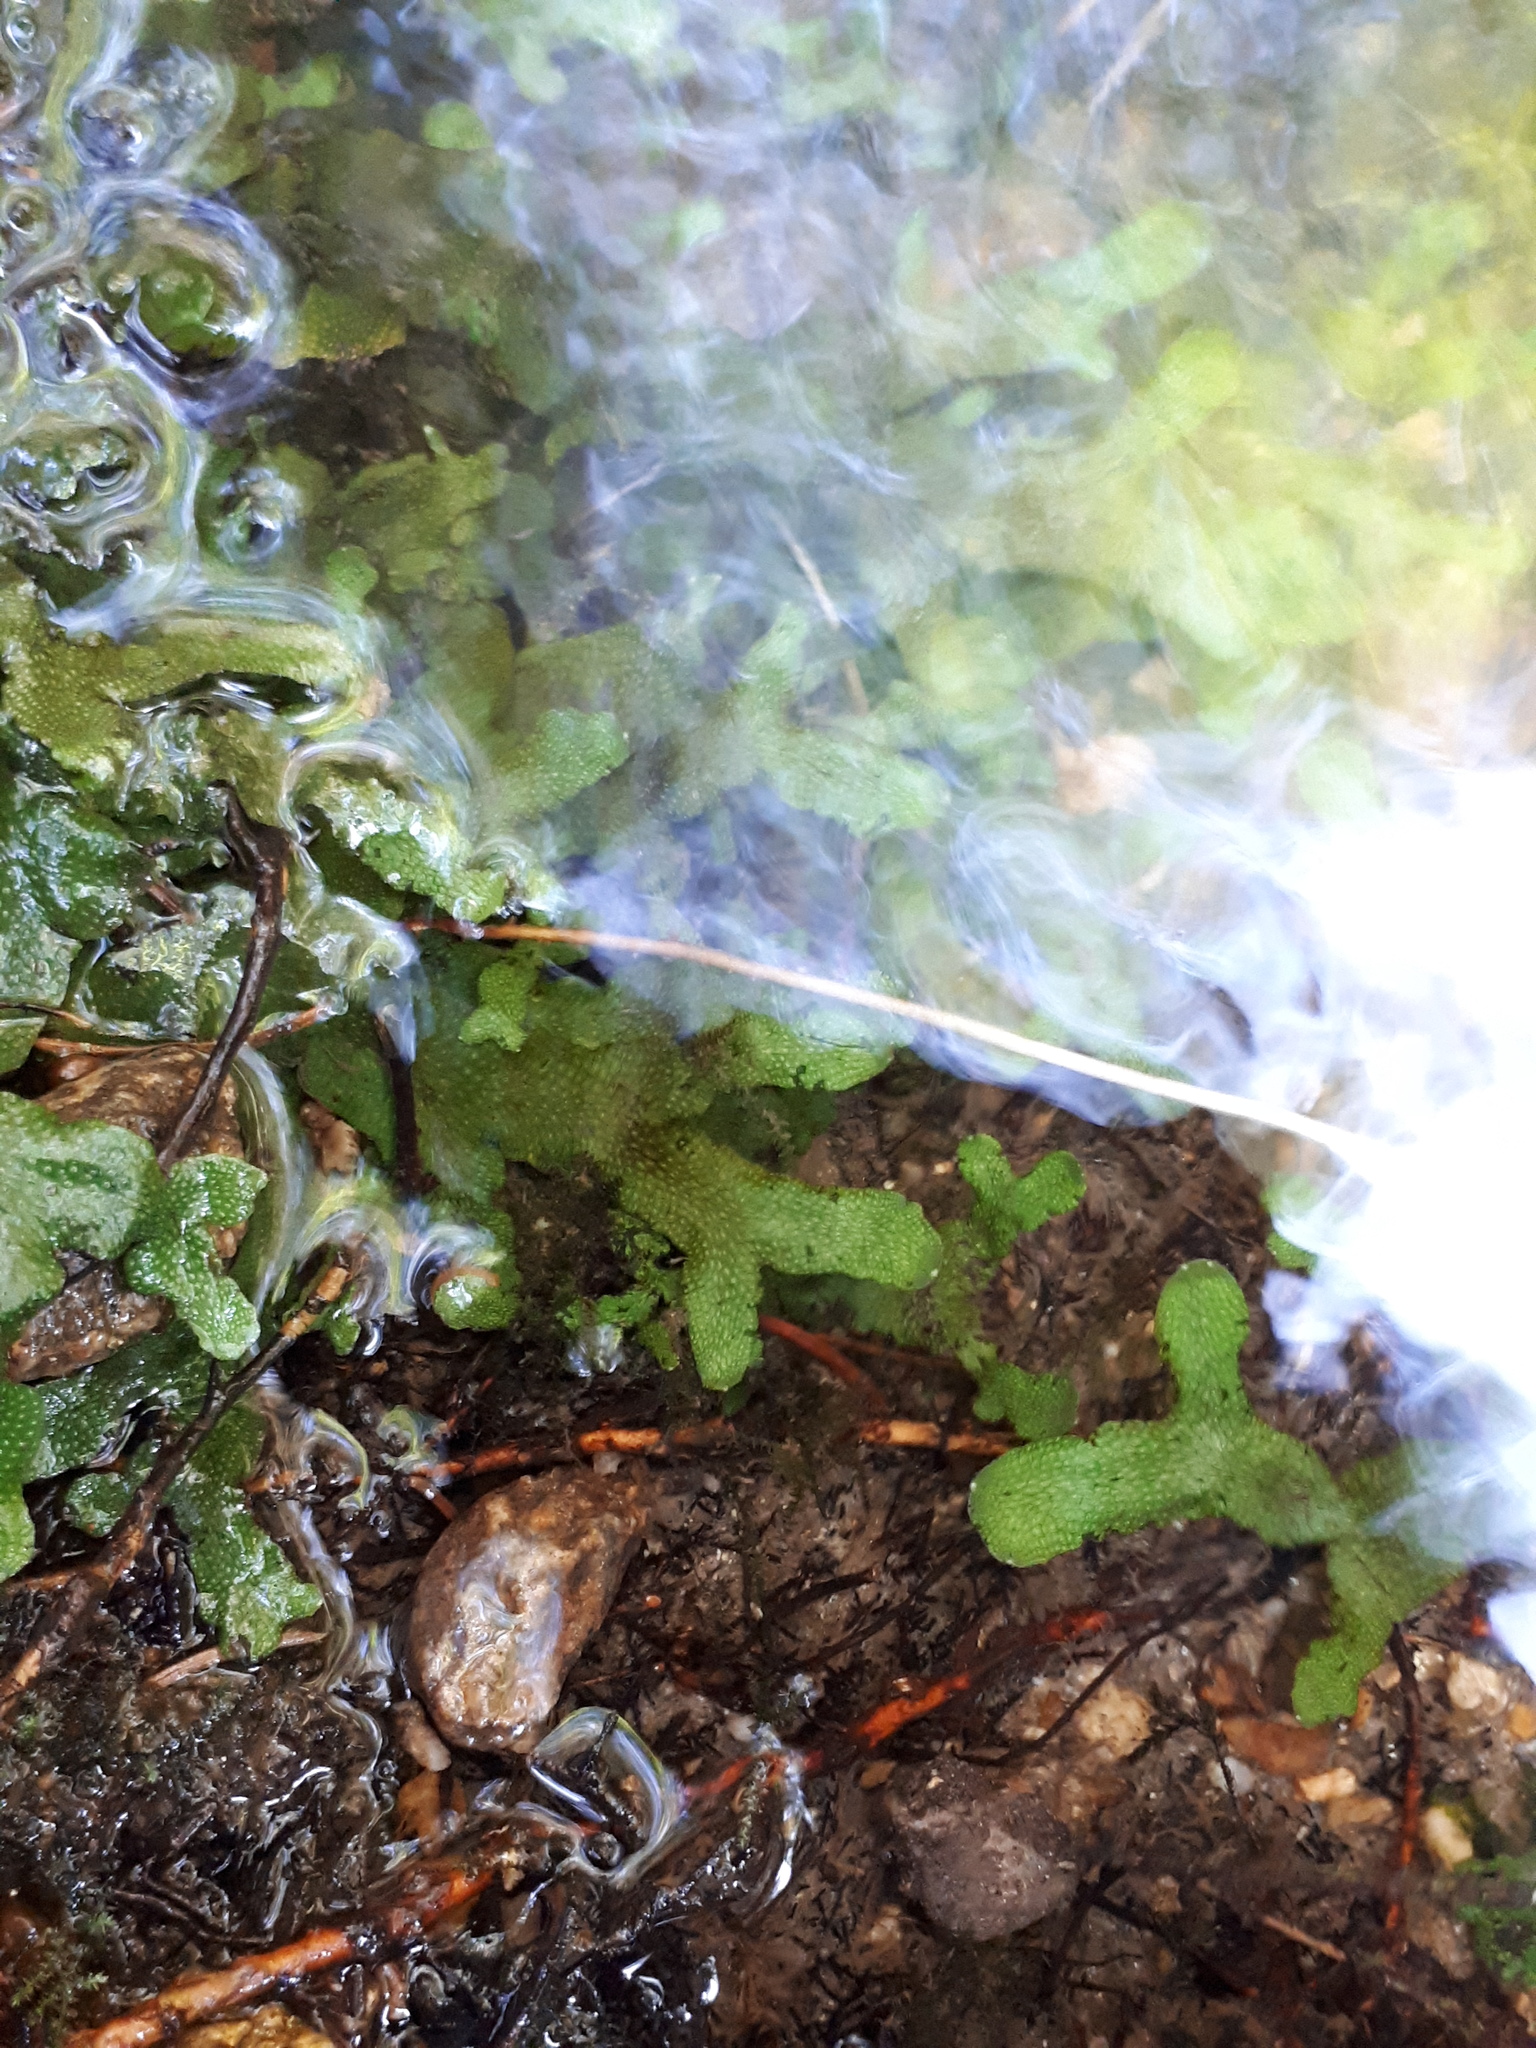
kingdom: Plantae
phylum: Marchantiophyta
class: Marchantiopsida
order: Marchantiales
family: Conocephalaceae
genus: Conocephalum
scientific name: Conocephalum conicum
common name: Great scented liverwort
